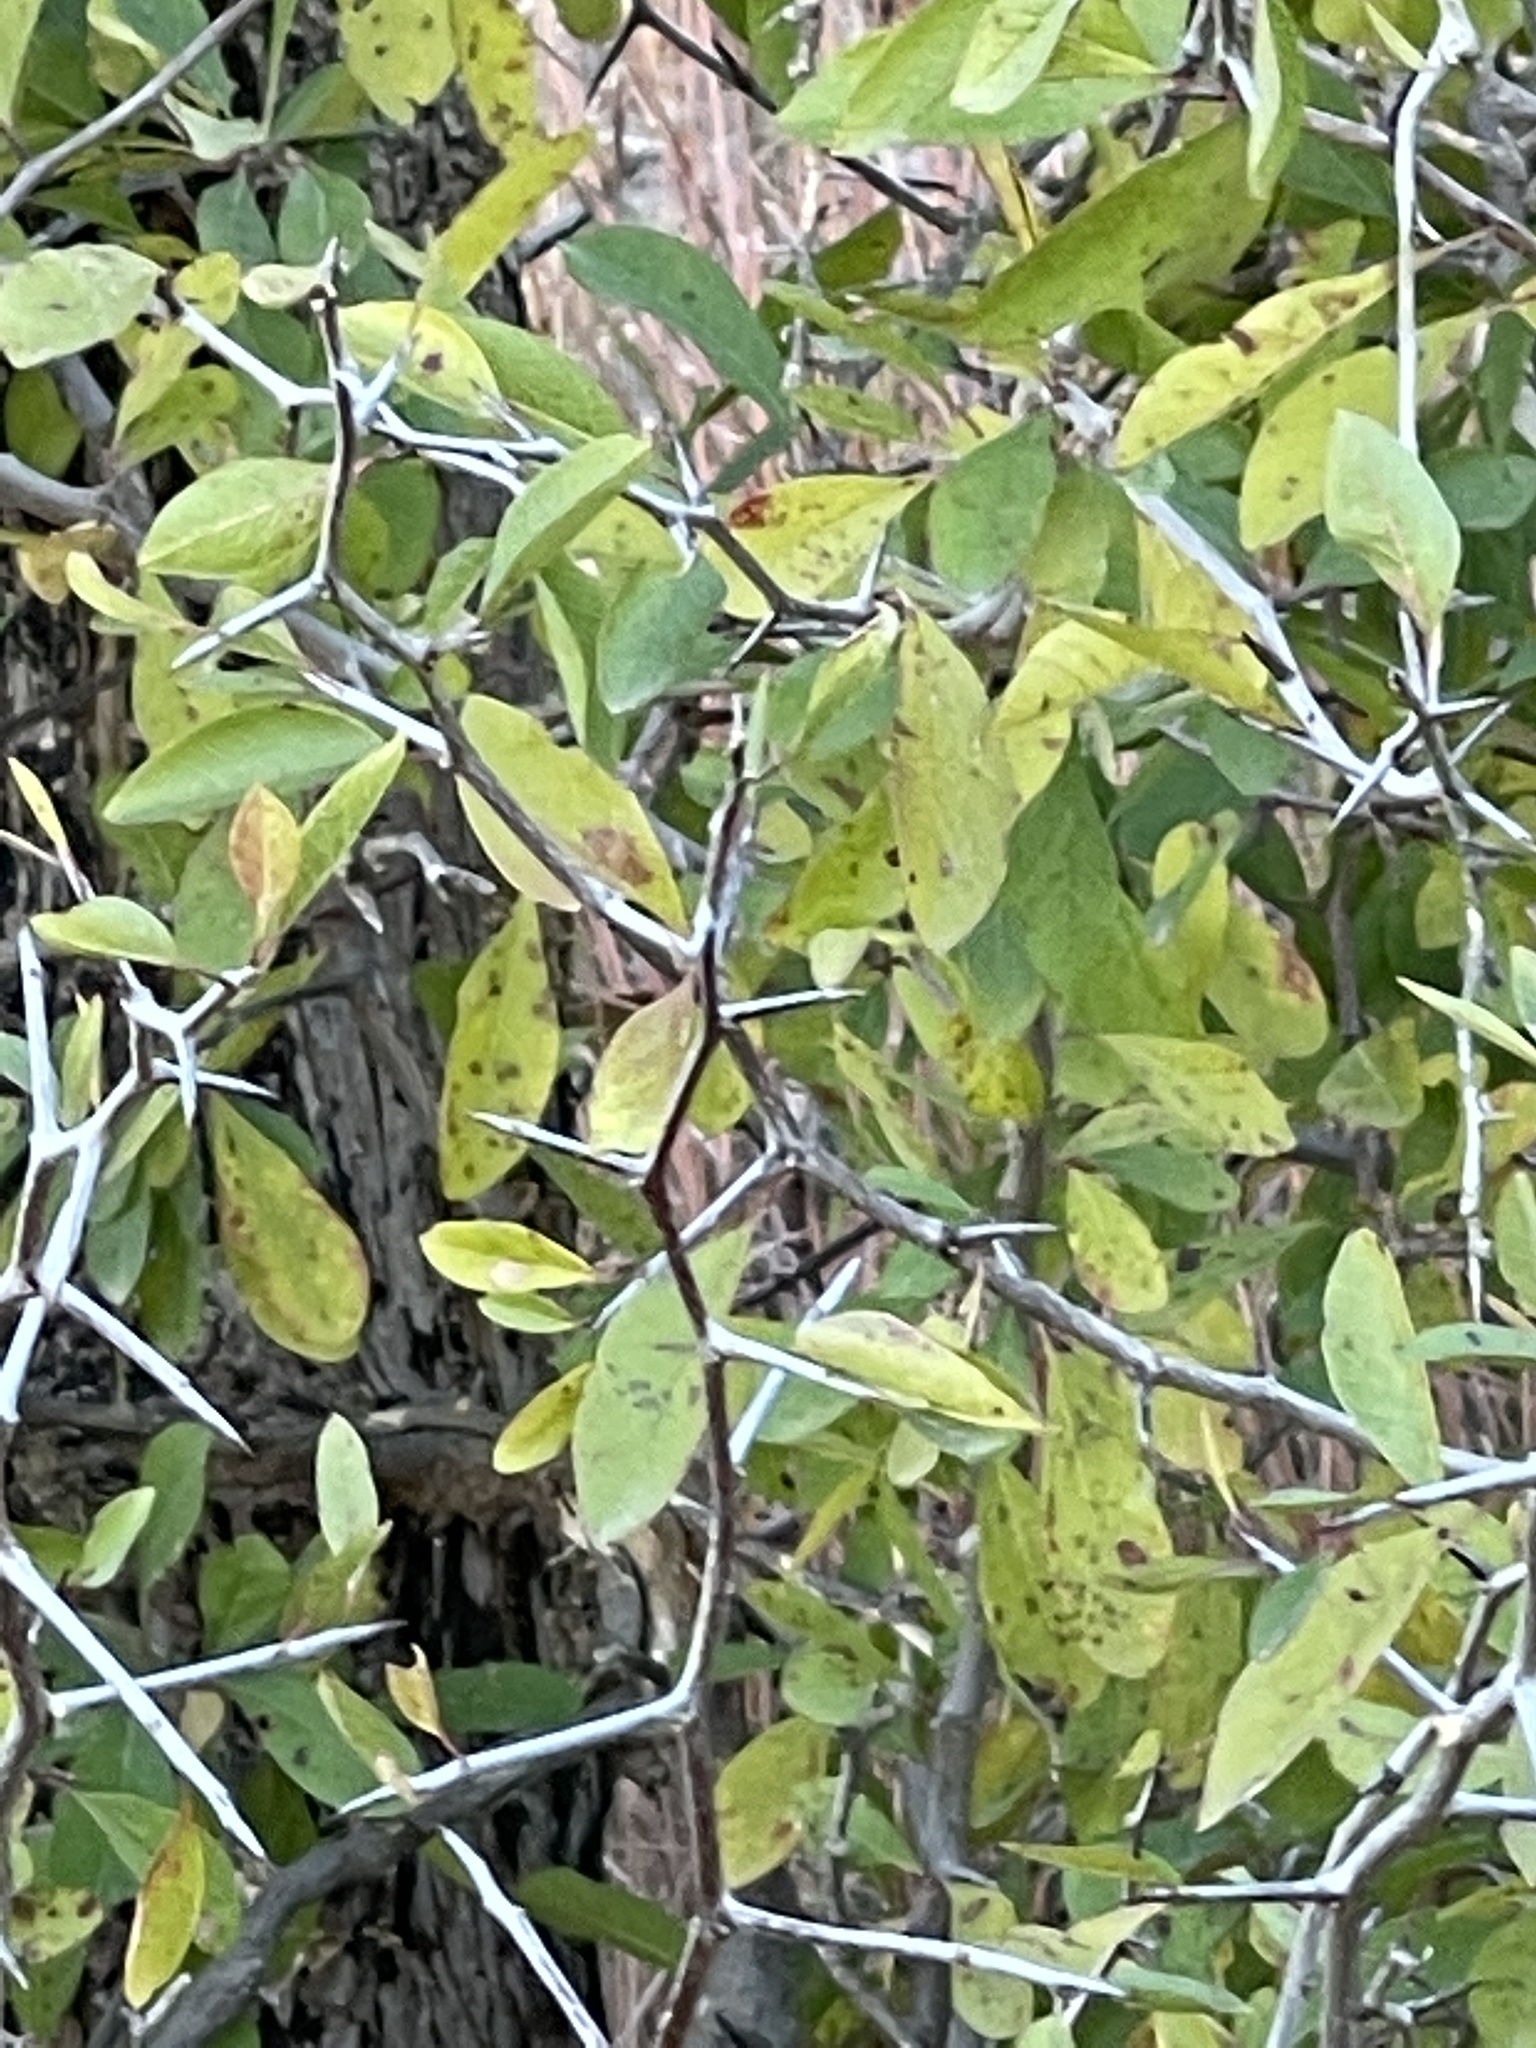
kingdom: Plantae
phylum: Tracheophyta
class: Magnoliopsida
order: Ericales
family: Sapotaceae
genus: Sideroxylon
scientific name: Sideroxylon lanuginosum
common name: Chittamwood
